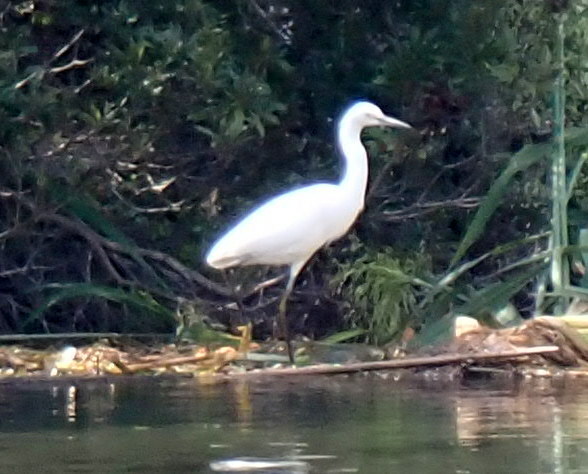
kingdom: Animalia
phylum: Chordata
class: Aves
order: Pelecaniformes
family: Ardeidae
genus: Egretta
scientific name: Egretta caerulea
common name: Little blue heron
